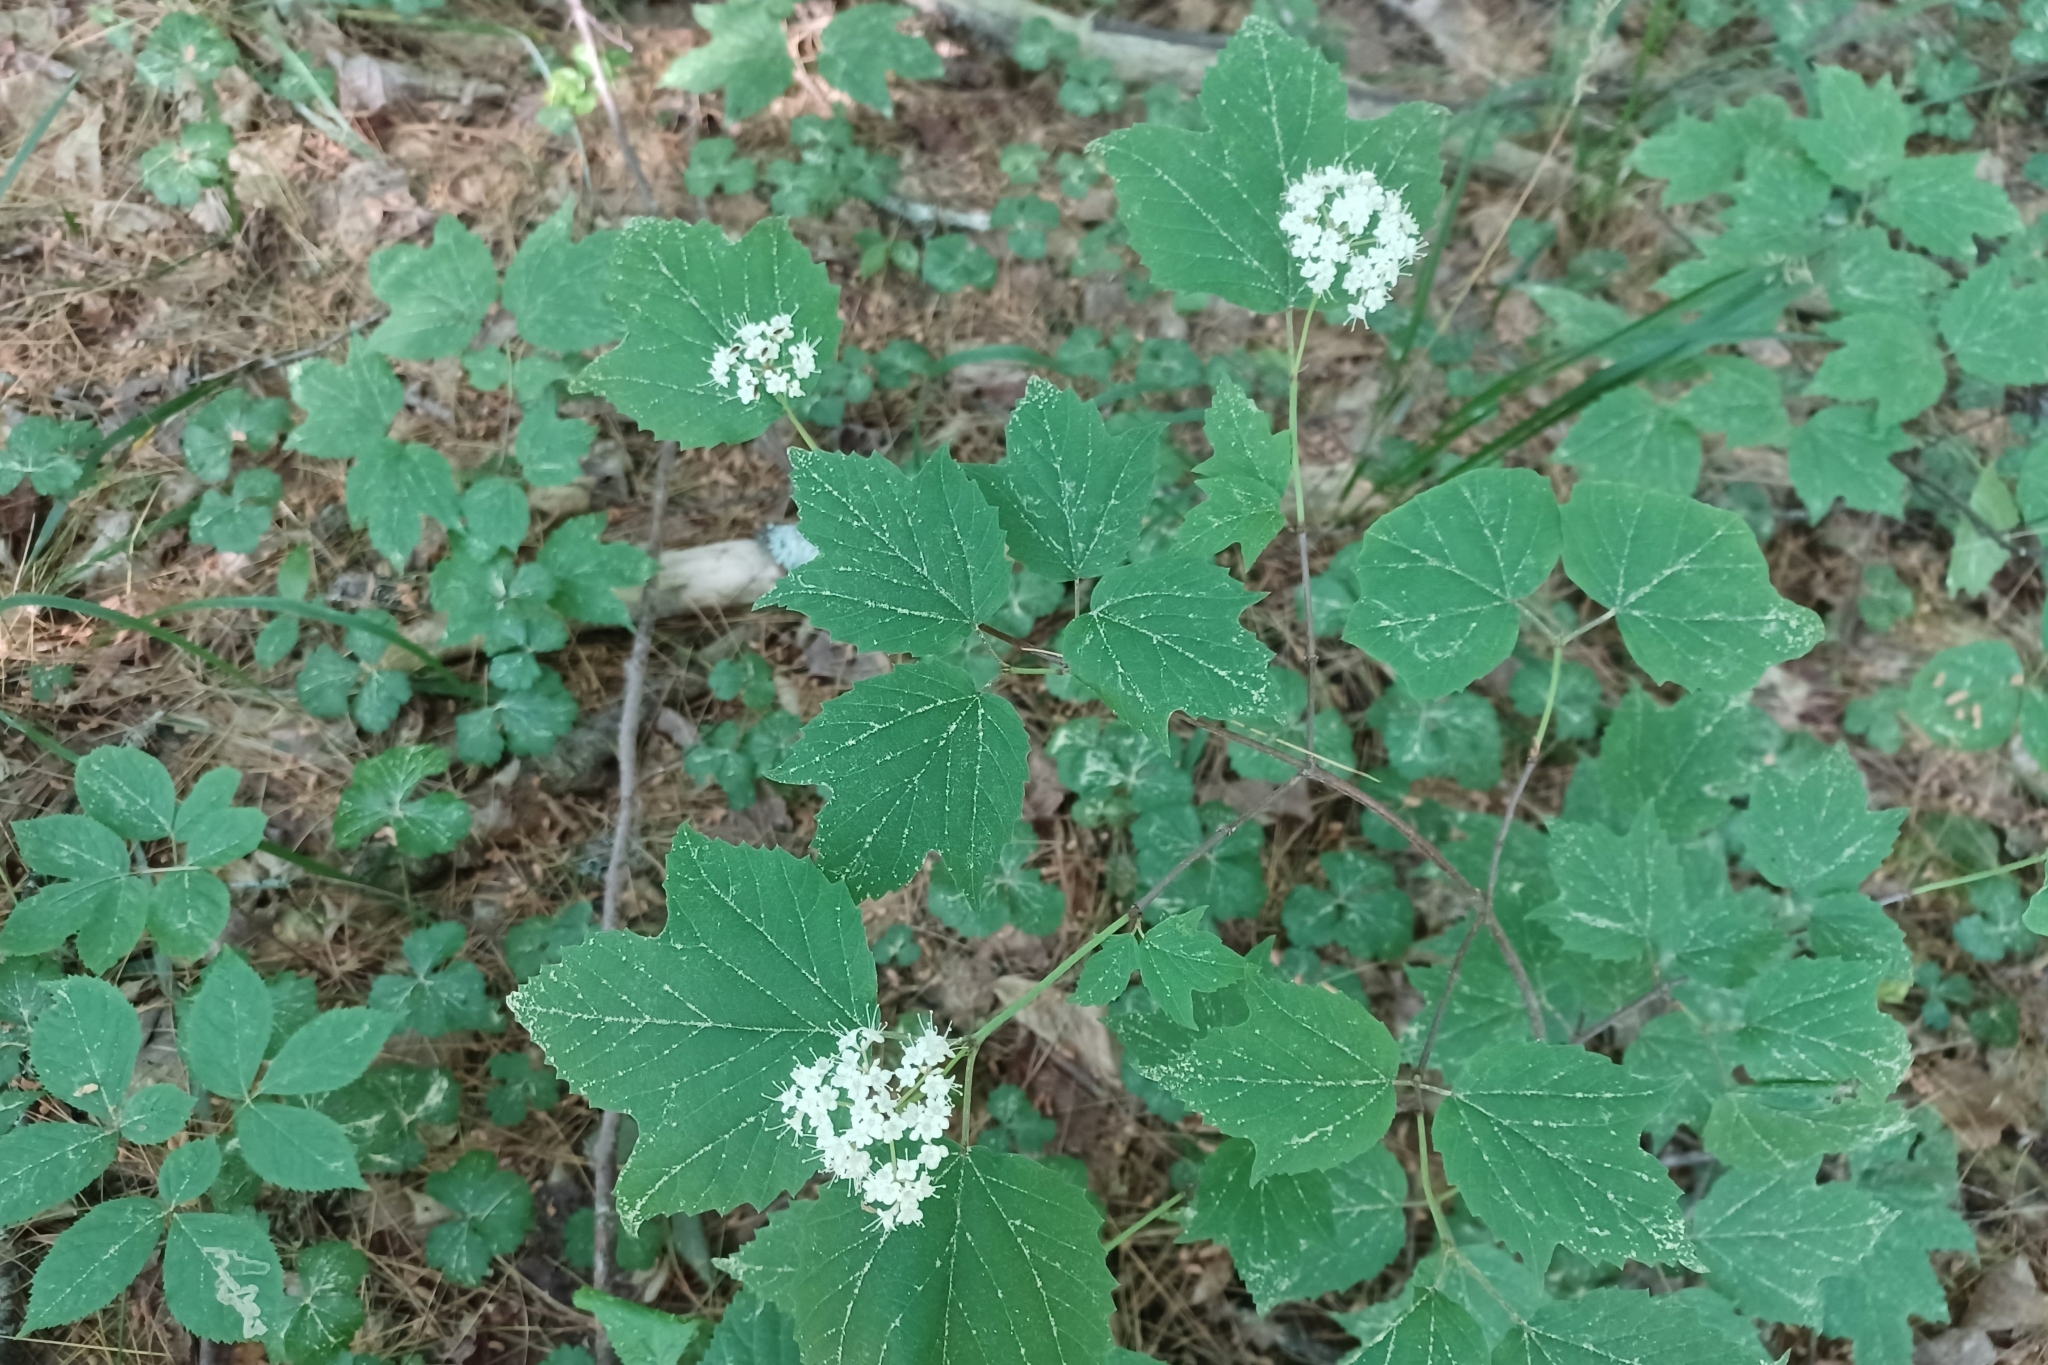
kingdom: Plantae
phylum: Tracheophyta
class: Magnoliopsida
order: Dipsacales
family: Viburnaceae
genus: Viburnum
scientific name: Viburnum acerifolium
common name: Dockmackie
